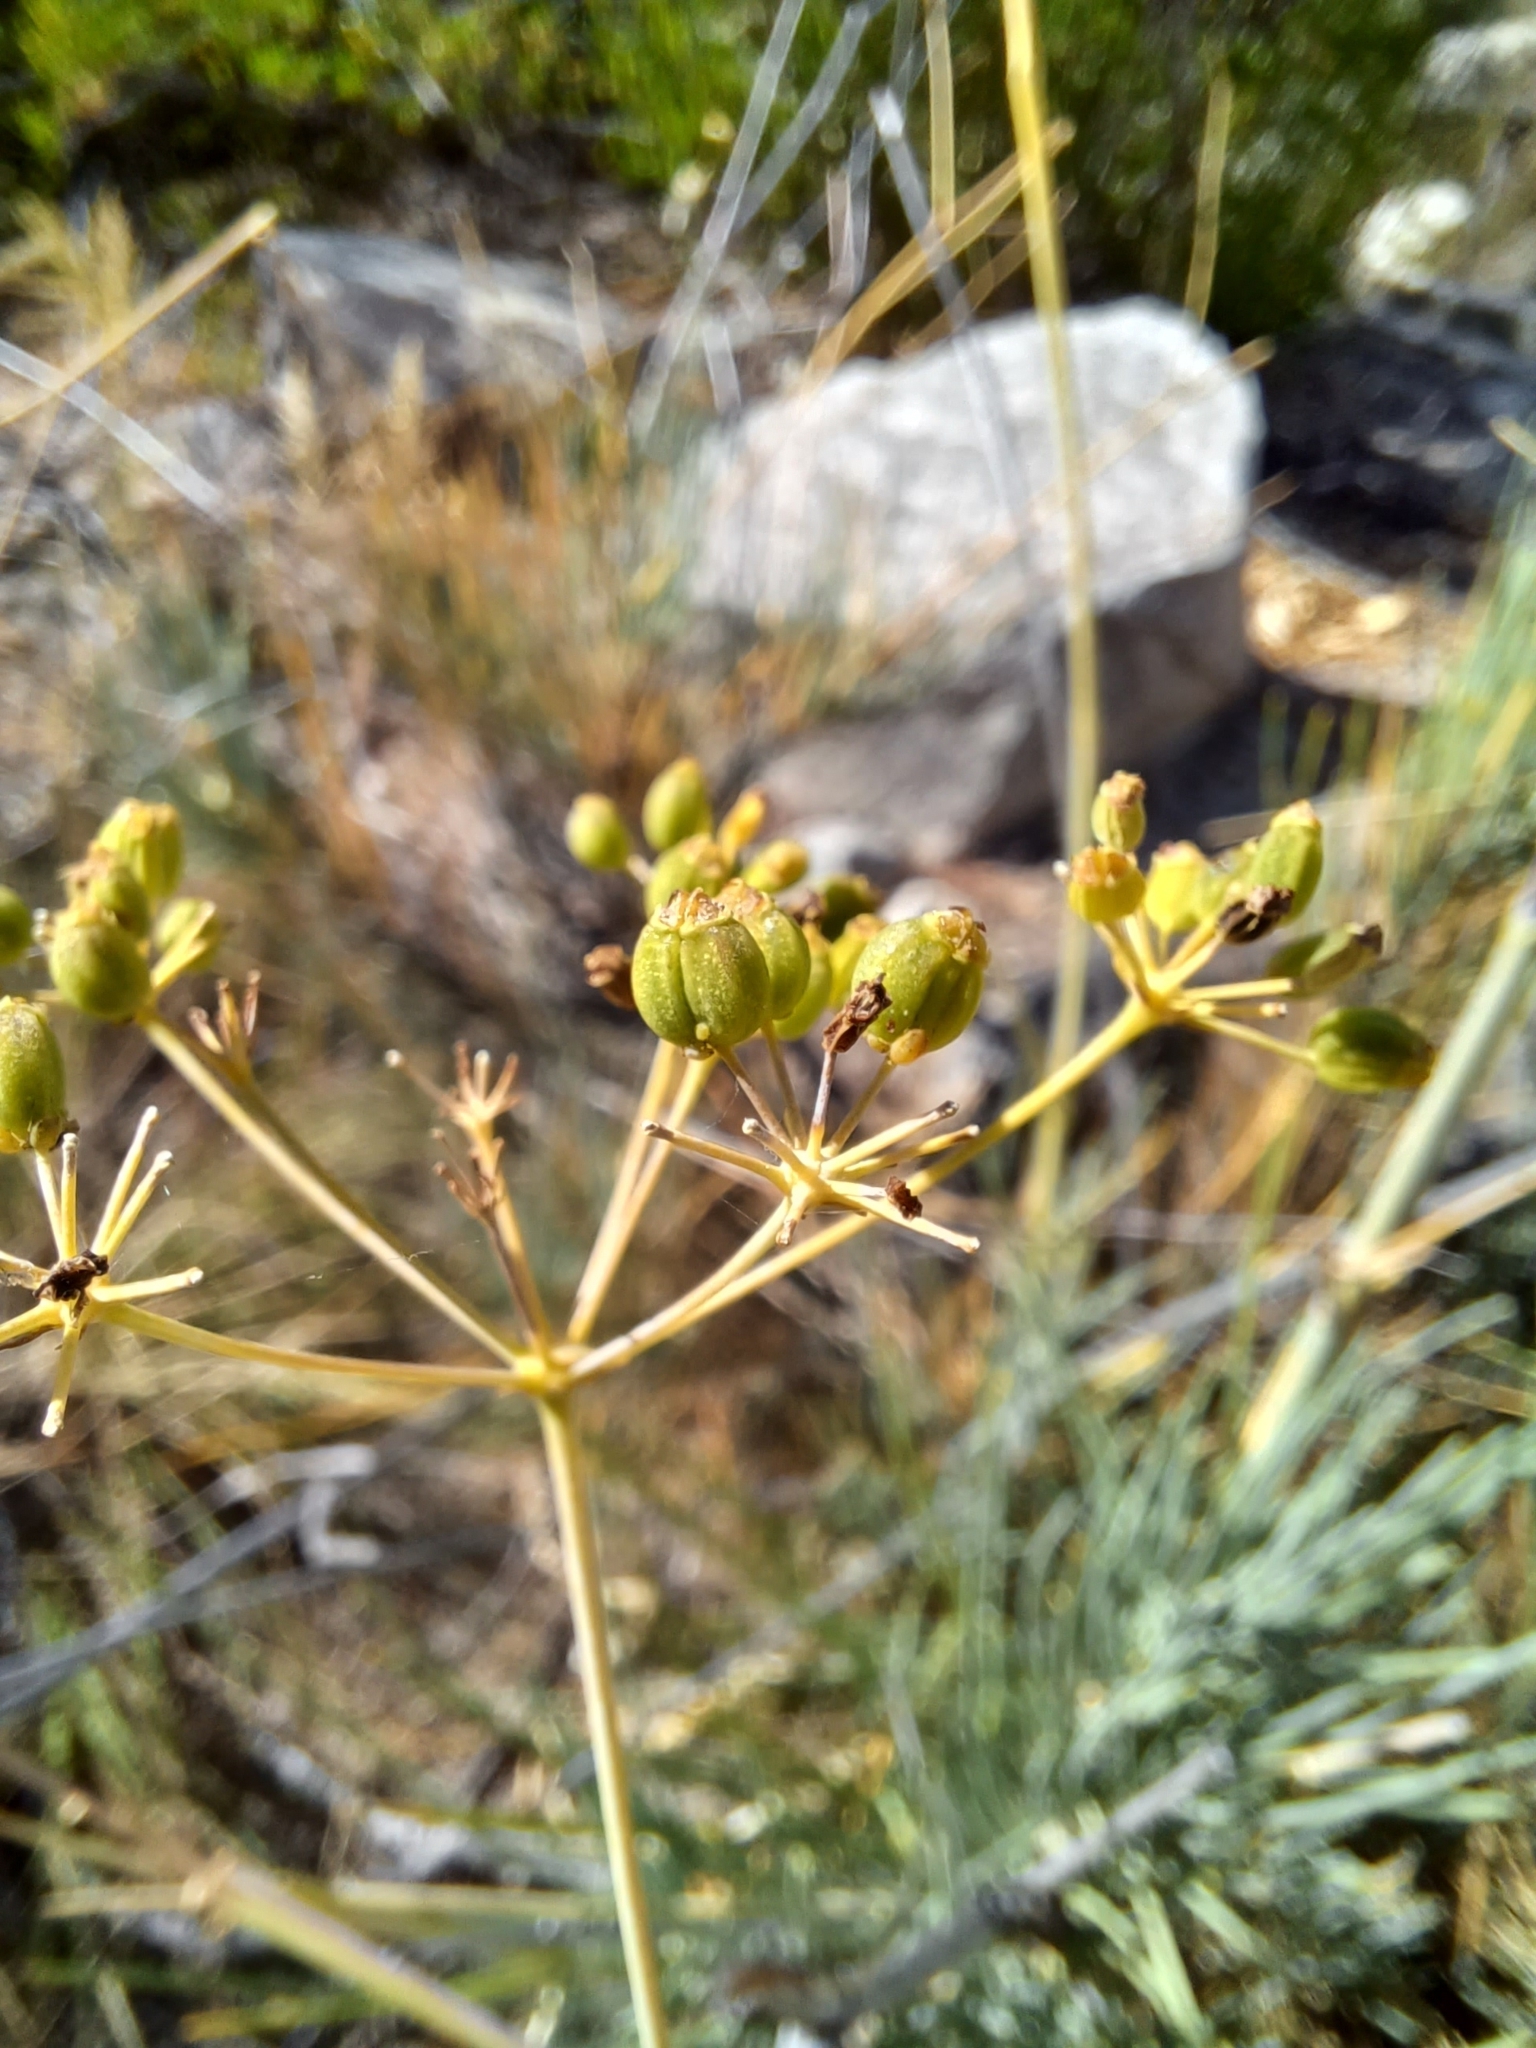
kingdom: Plantae
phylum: Tracheophyta
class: Magnoliopsida
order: Apiales
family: Apiaceae
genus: Anginon
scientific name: Anginon swellendamense
